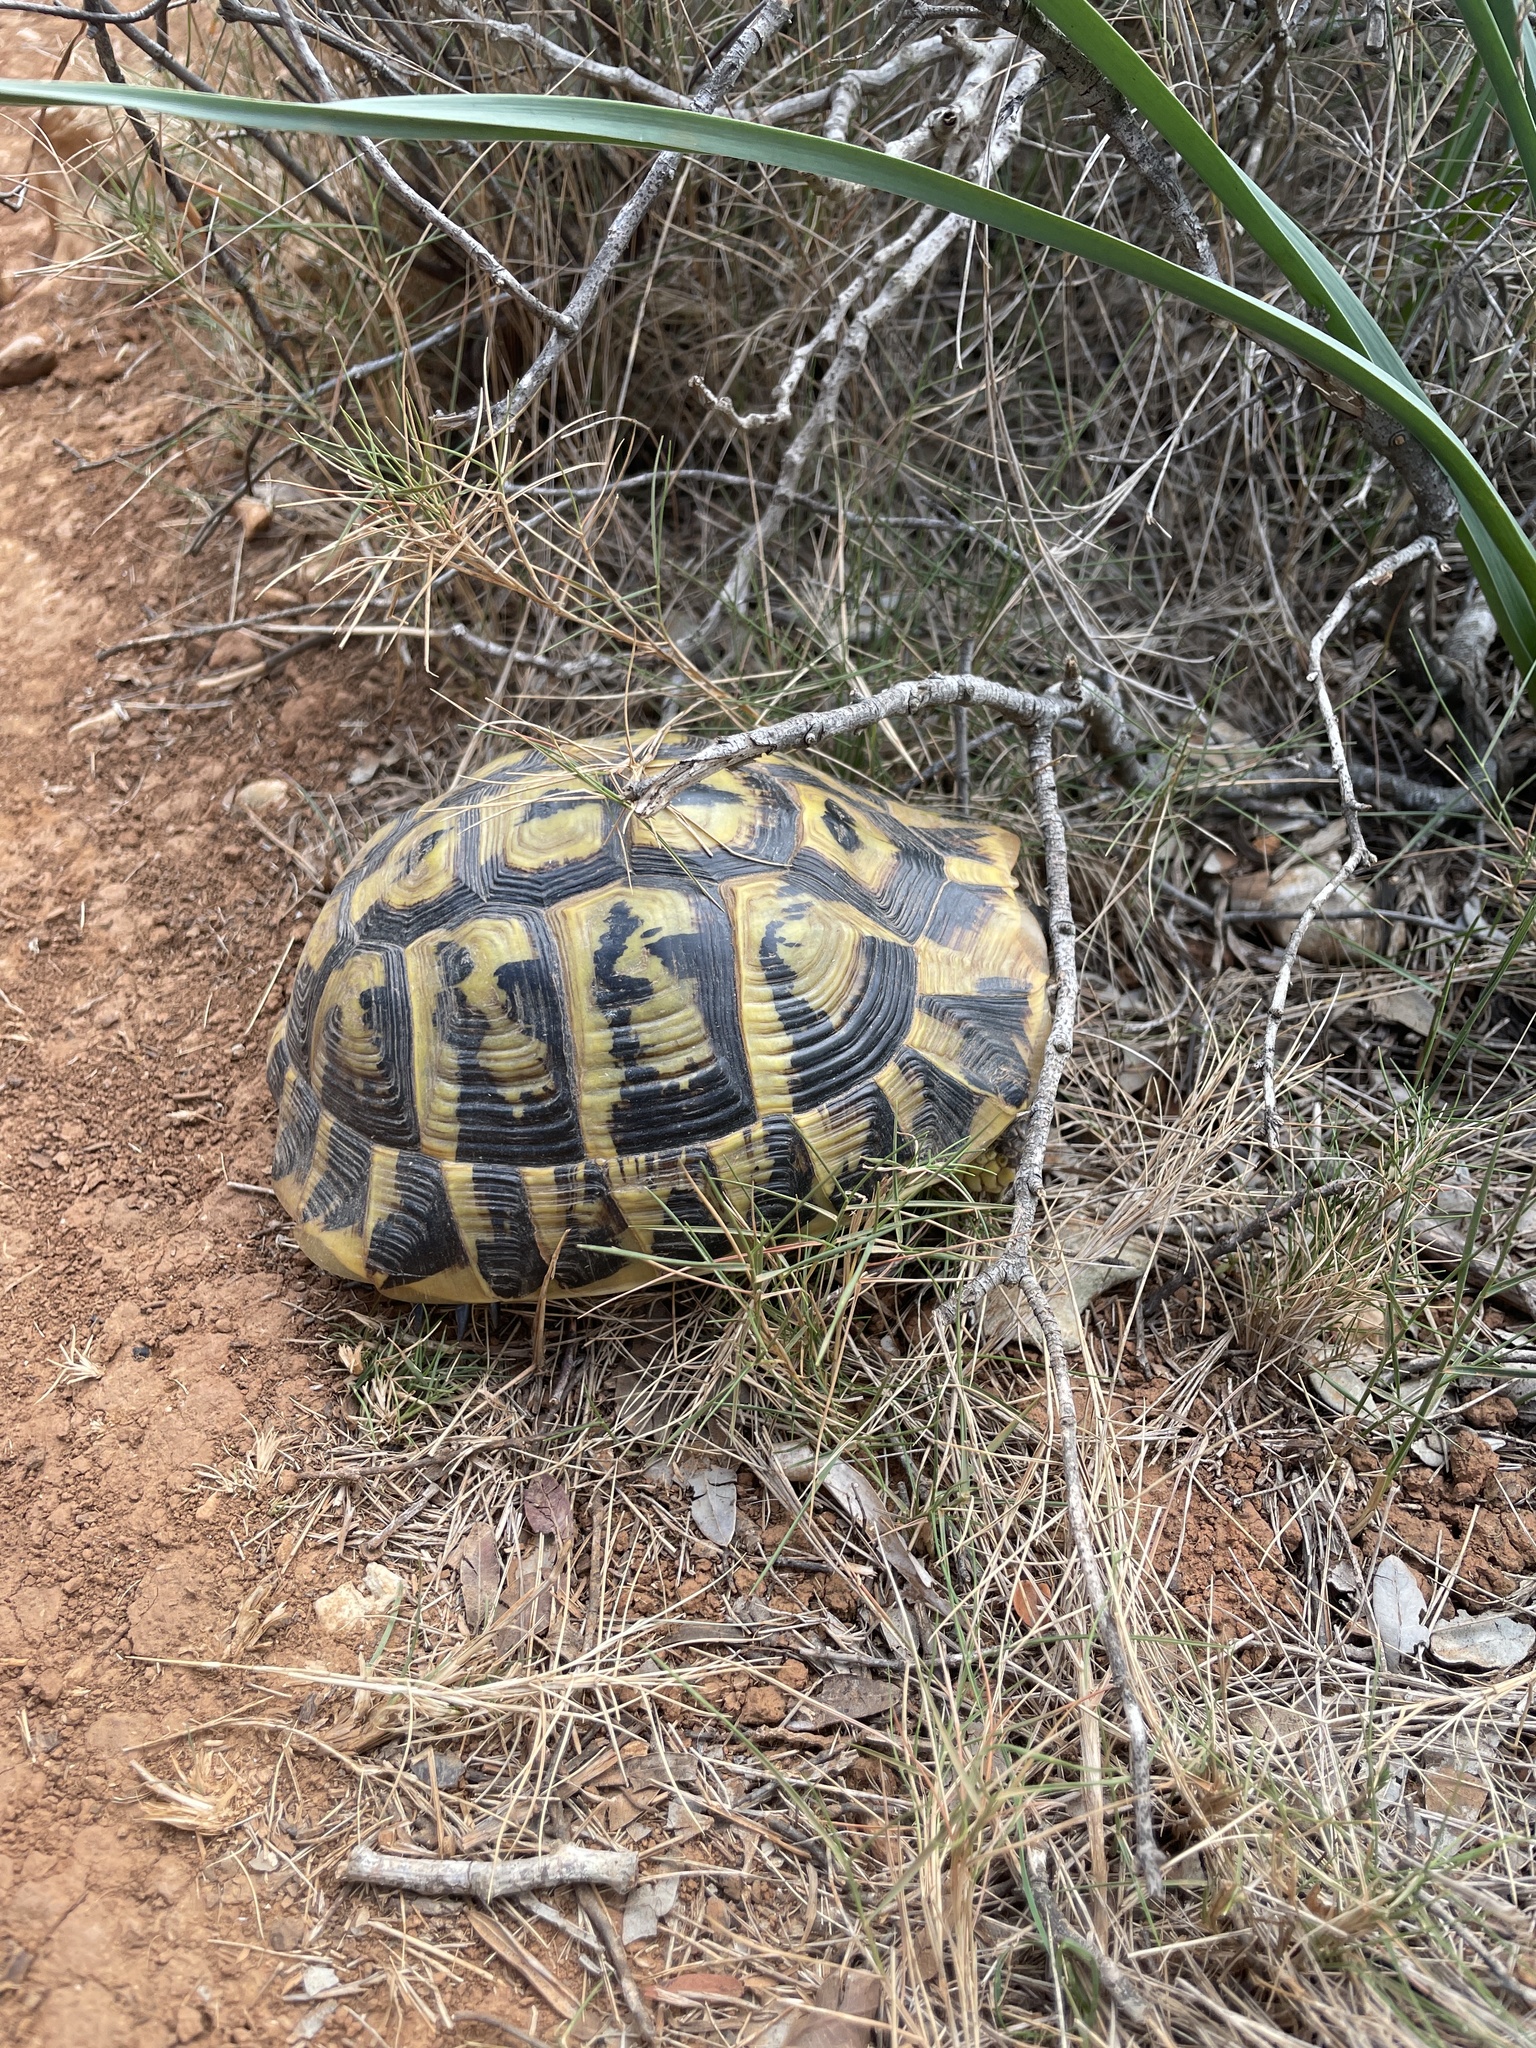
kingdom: Animalia
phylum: Chordata
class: Testudines
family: Testudinidae
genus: Testudo
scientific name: Testudo hermanni
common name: Hermann's tortoise
